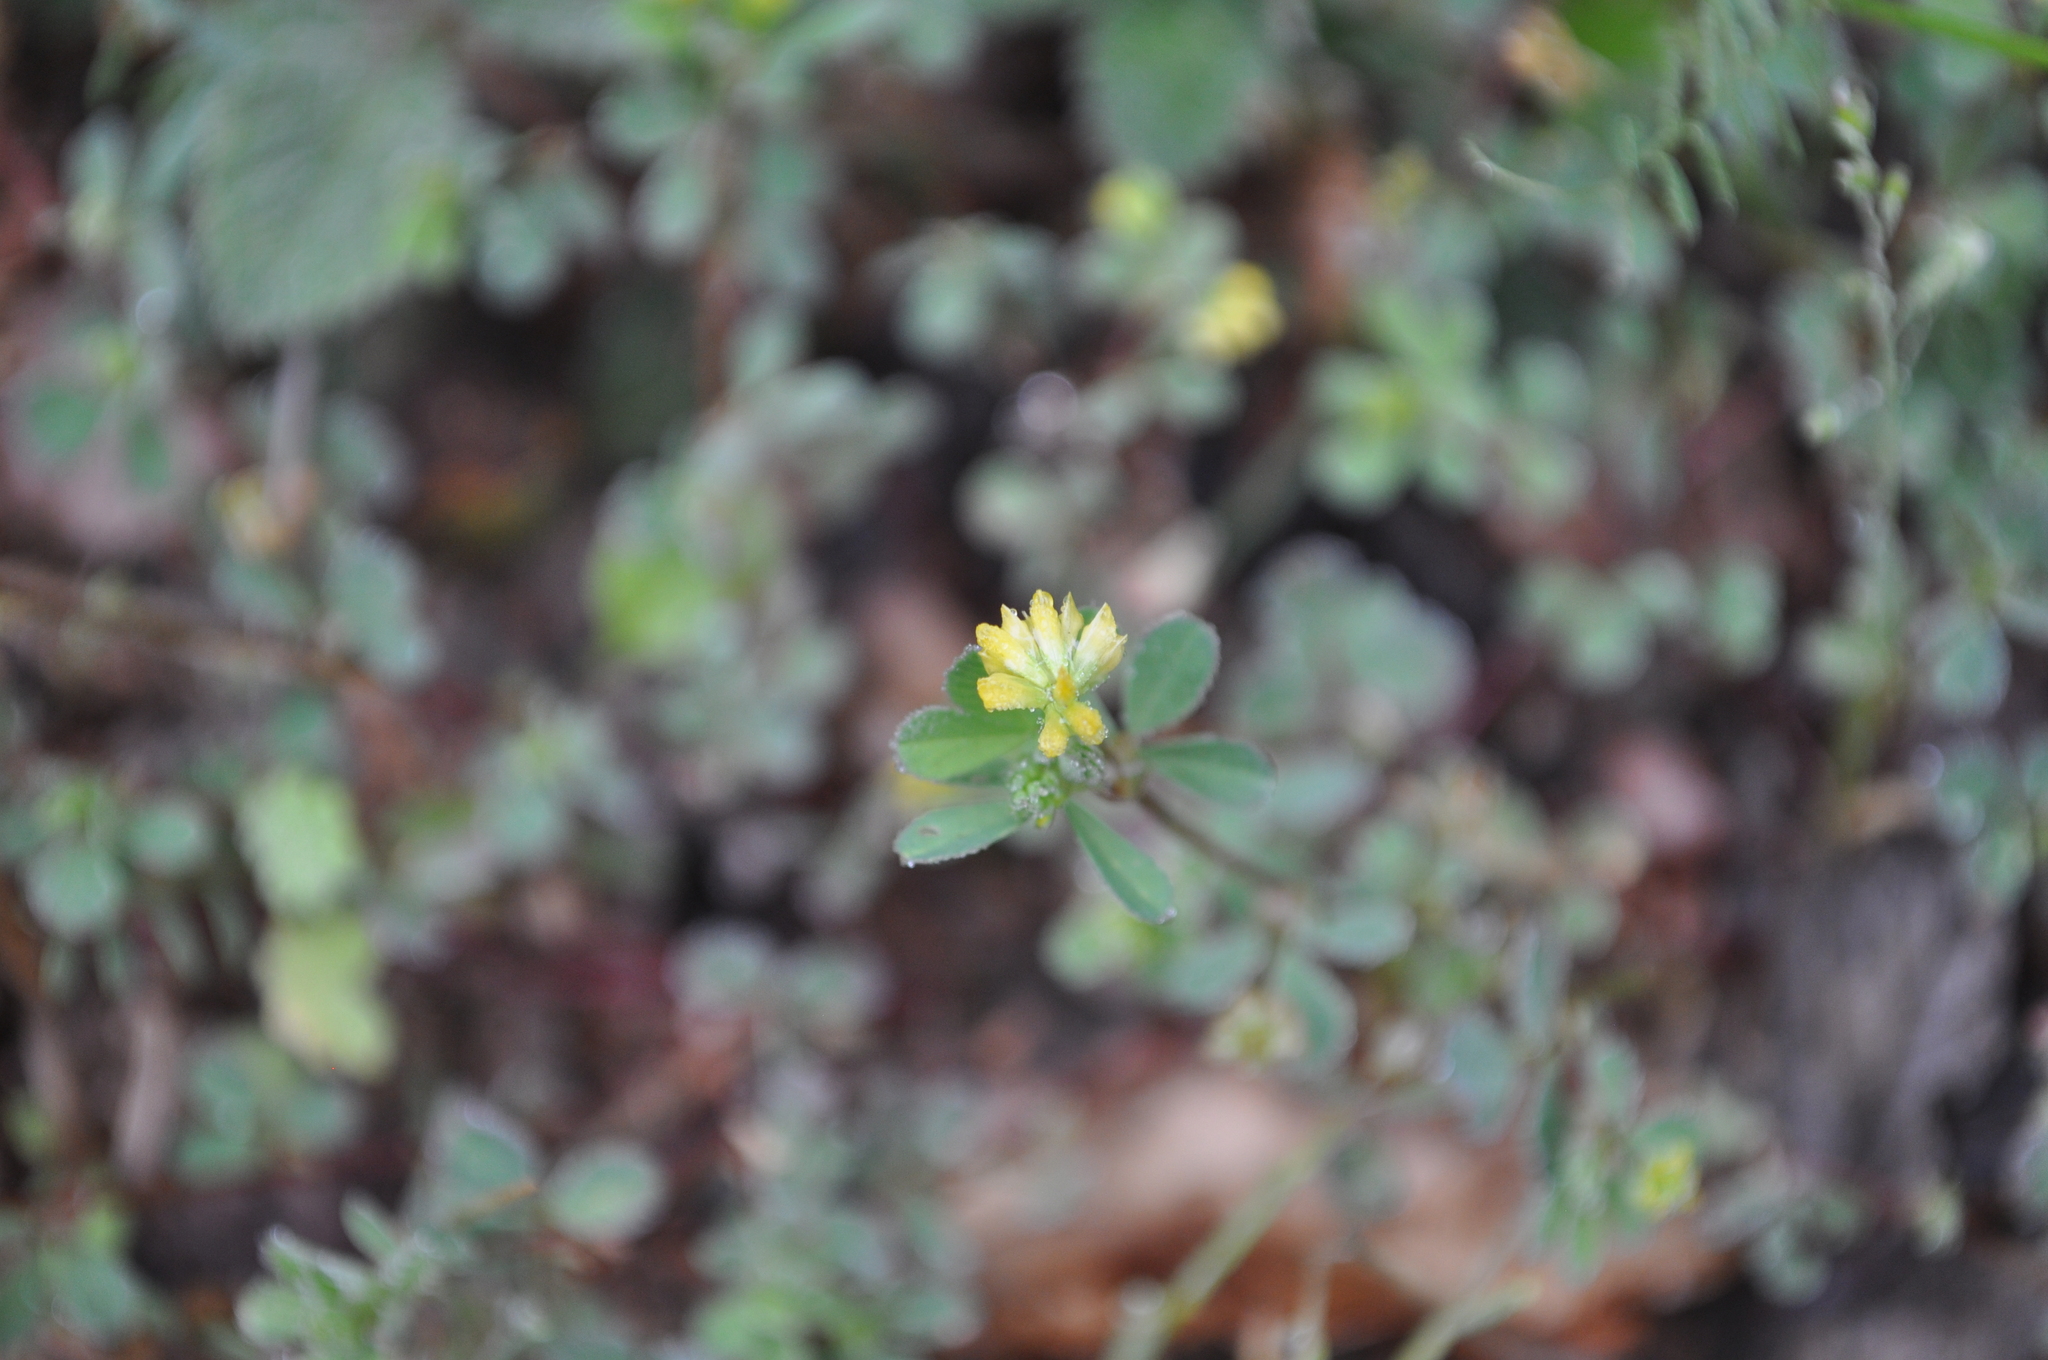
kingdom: Plantae
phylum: Tracheophyta
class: Magnoliopsida
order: Fabales
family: Fabaceae
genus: Trifolium
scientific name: Trifolium dubium
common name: Suckling clover
